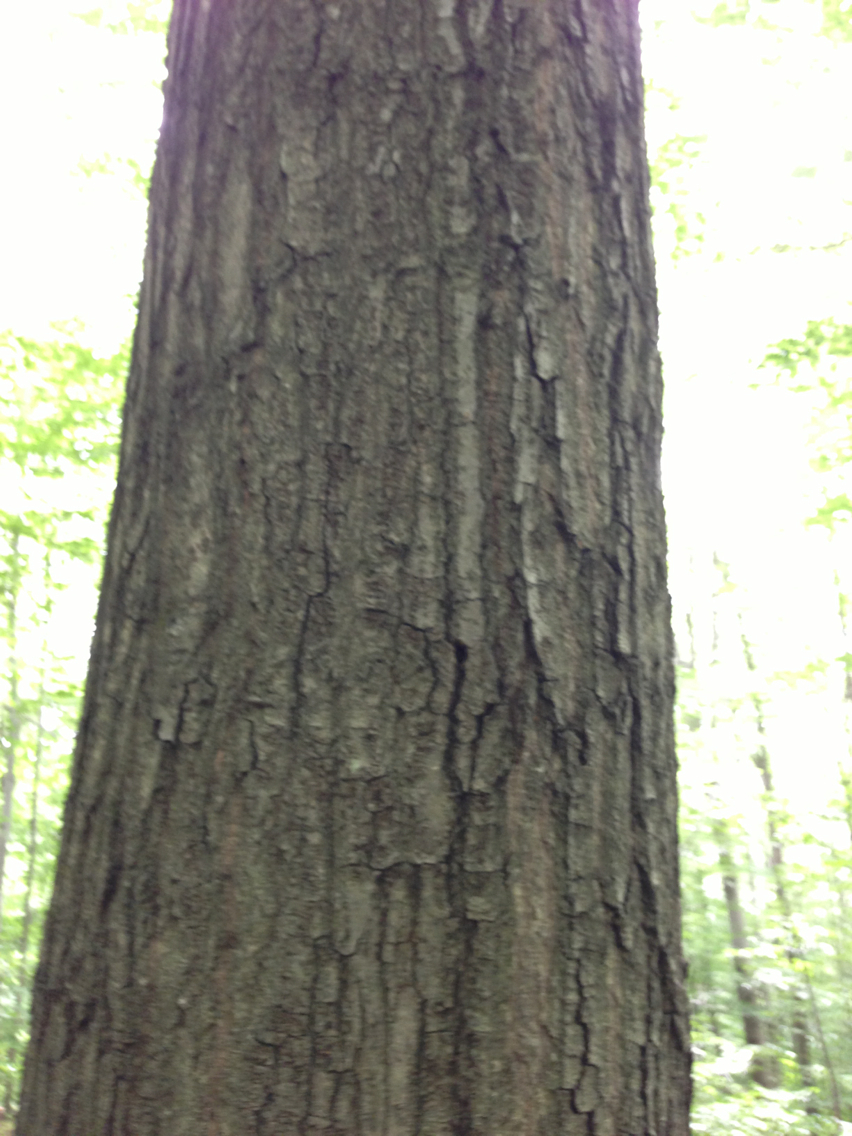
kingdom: Plantae
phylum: Tracheophyta
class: Magnoliopsida
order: Fagales
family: Fagaceae
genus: Quercus
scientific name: Quercus rubra
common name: Red oak
